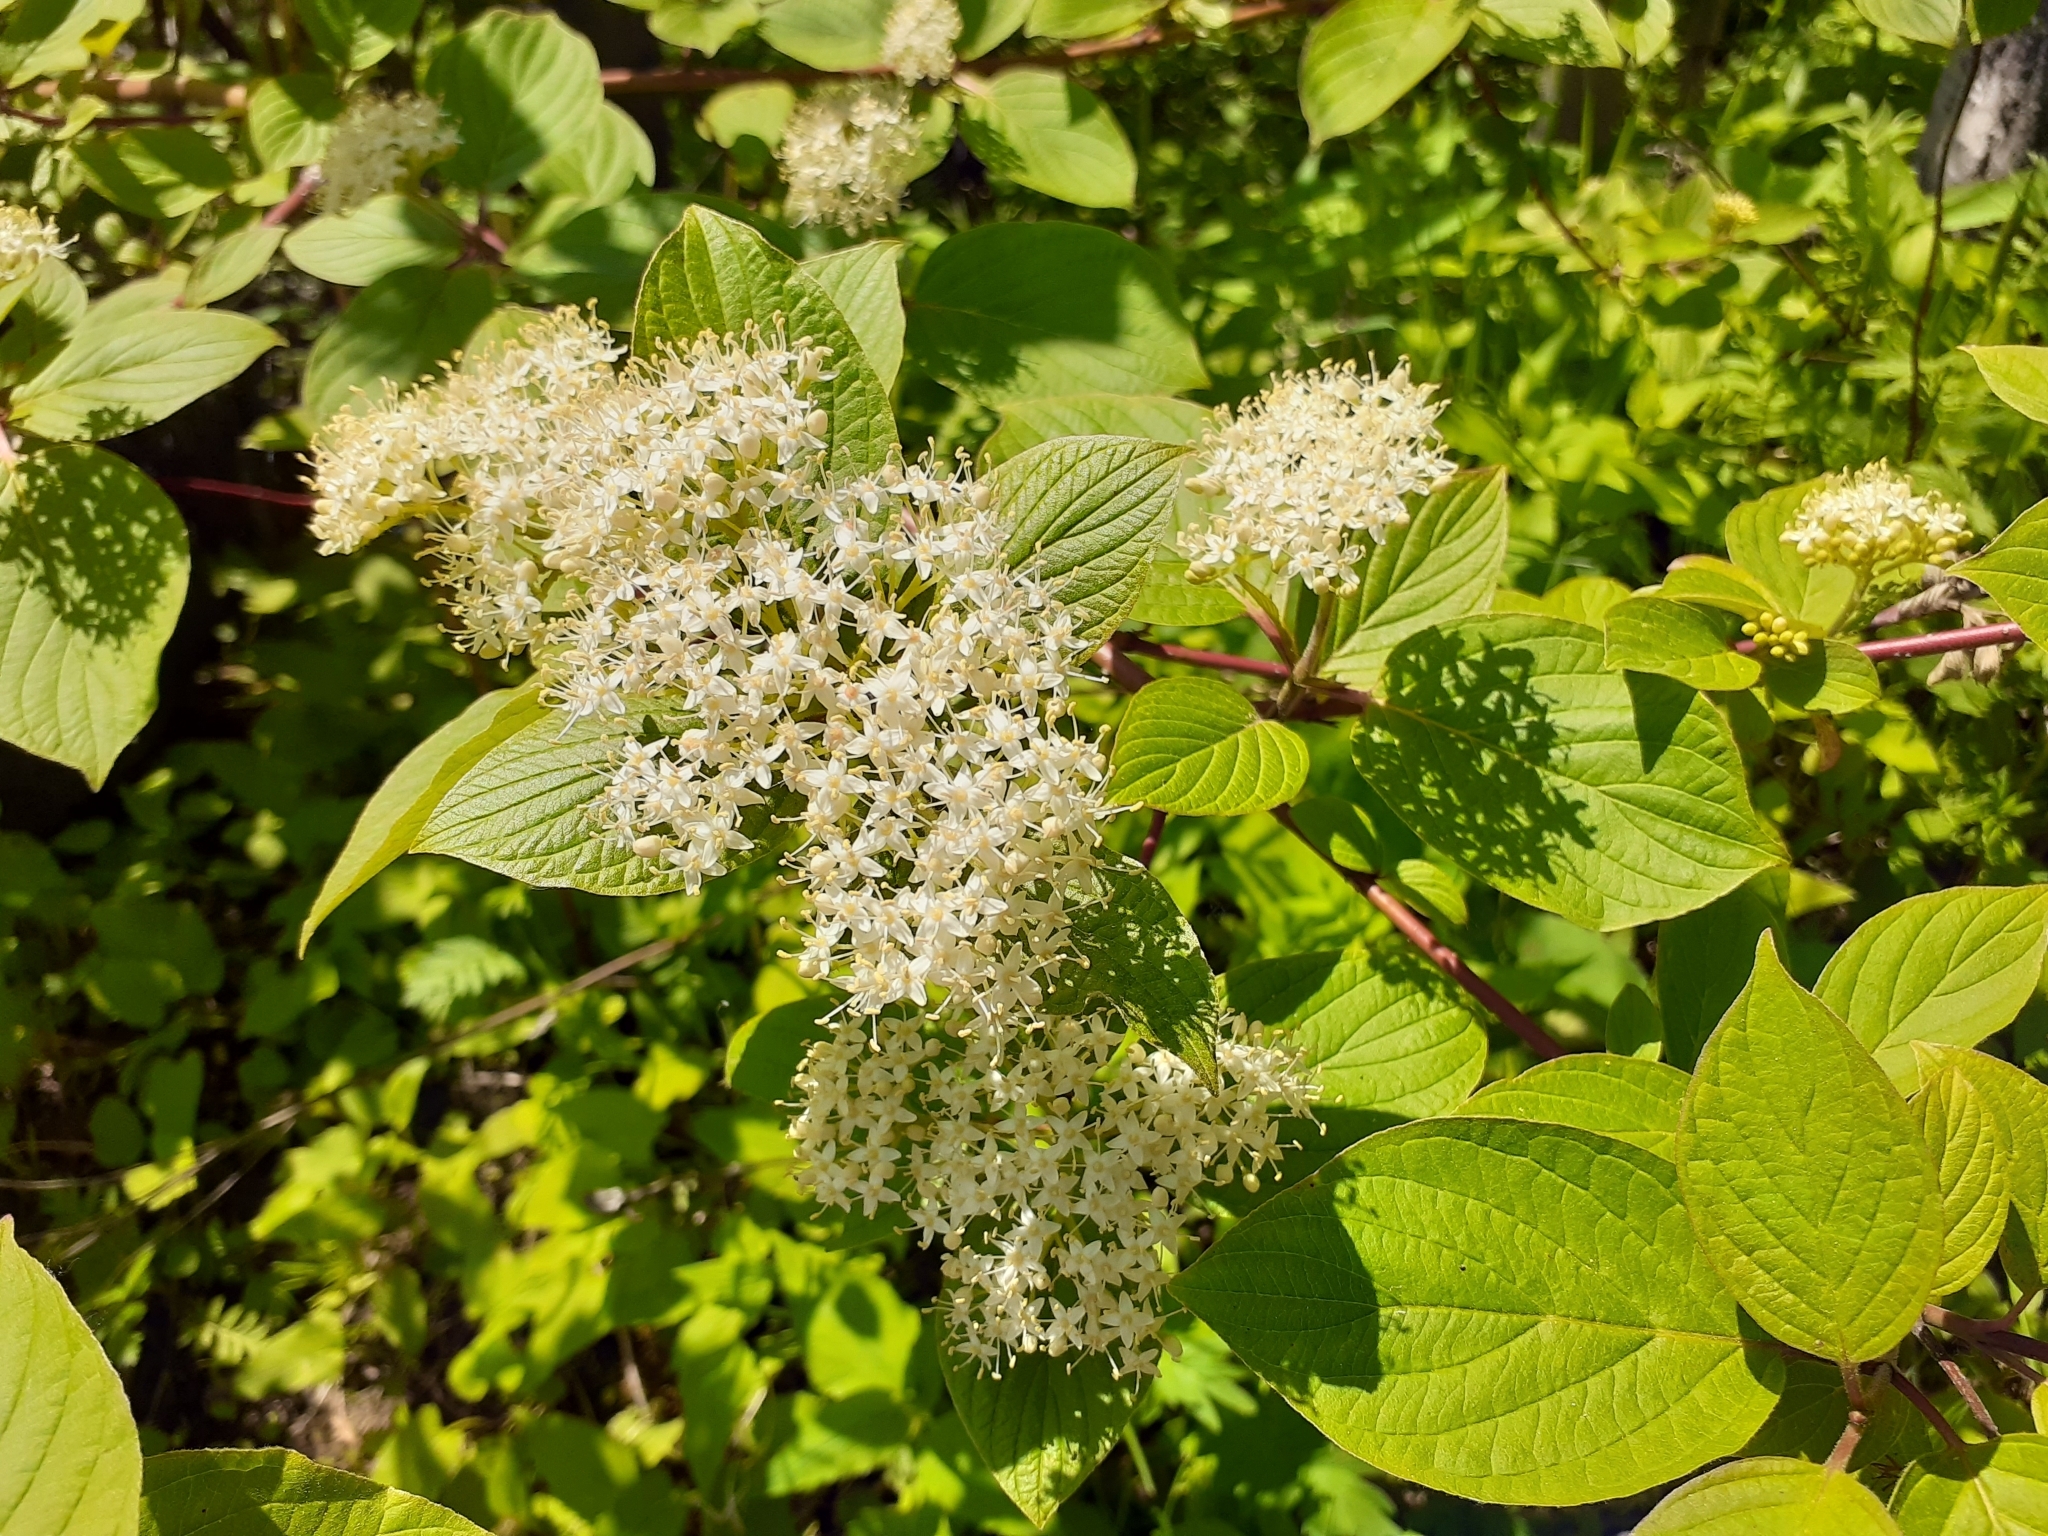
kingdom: Plantae
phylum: Tracheophyta
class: Magnoliopsida
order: Cornales
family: Cornaceae
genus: Cornus
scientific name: Cornus sericea
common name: Red-osier dogwood
